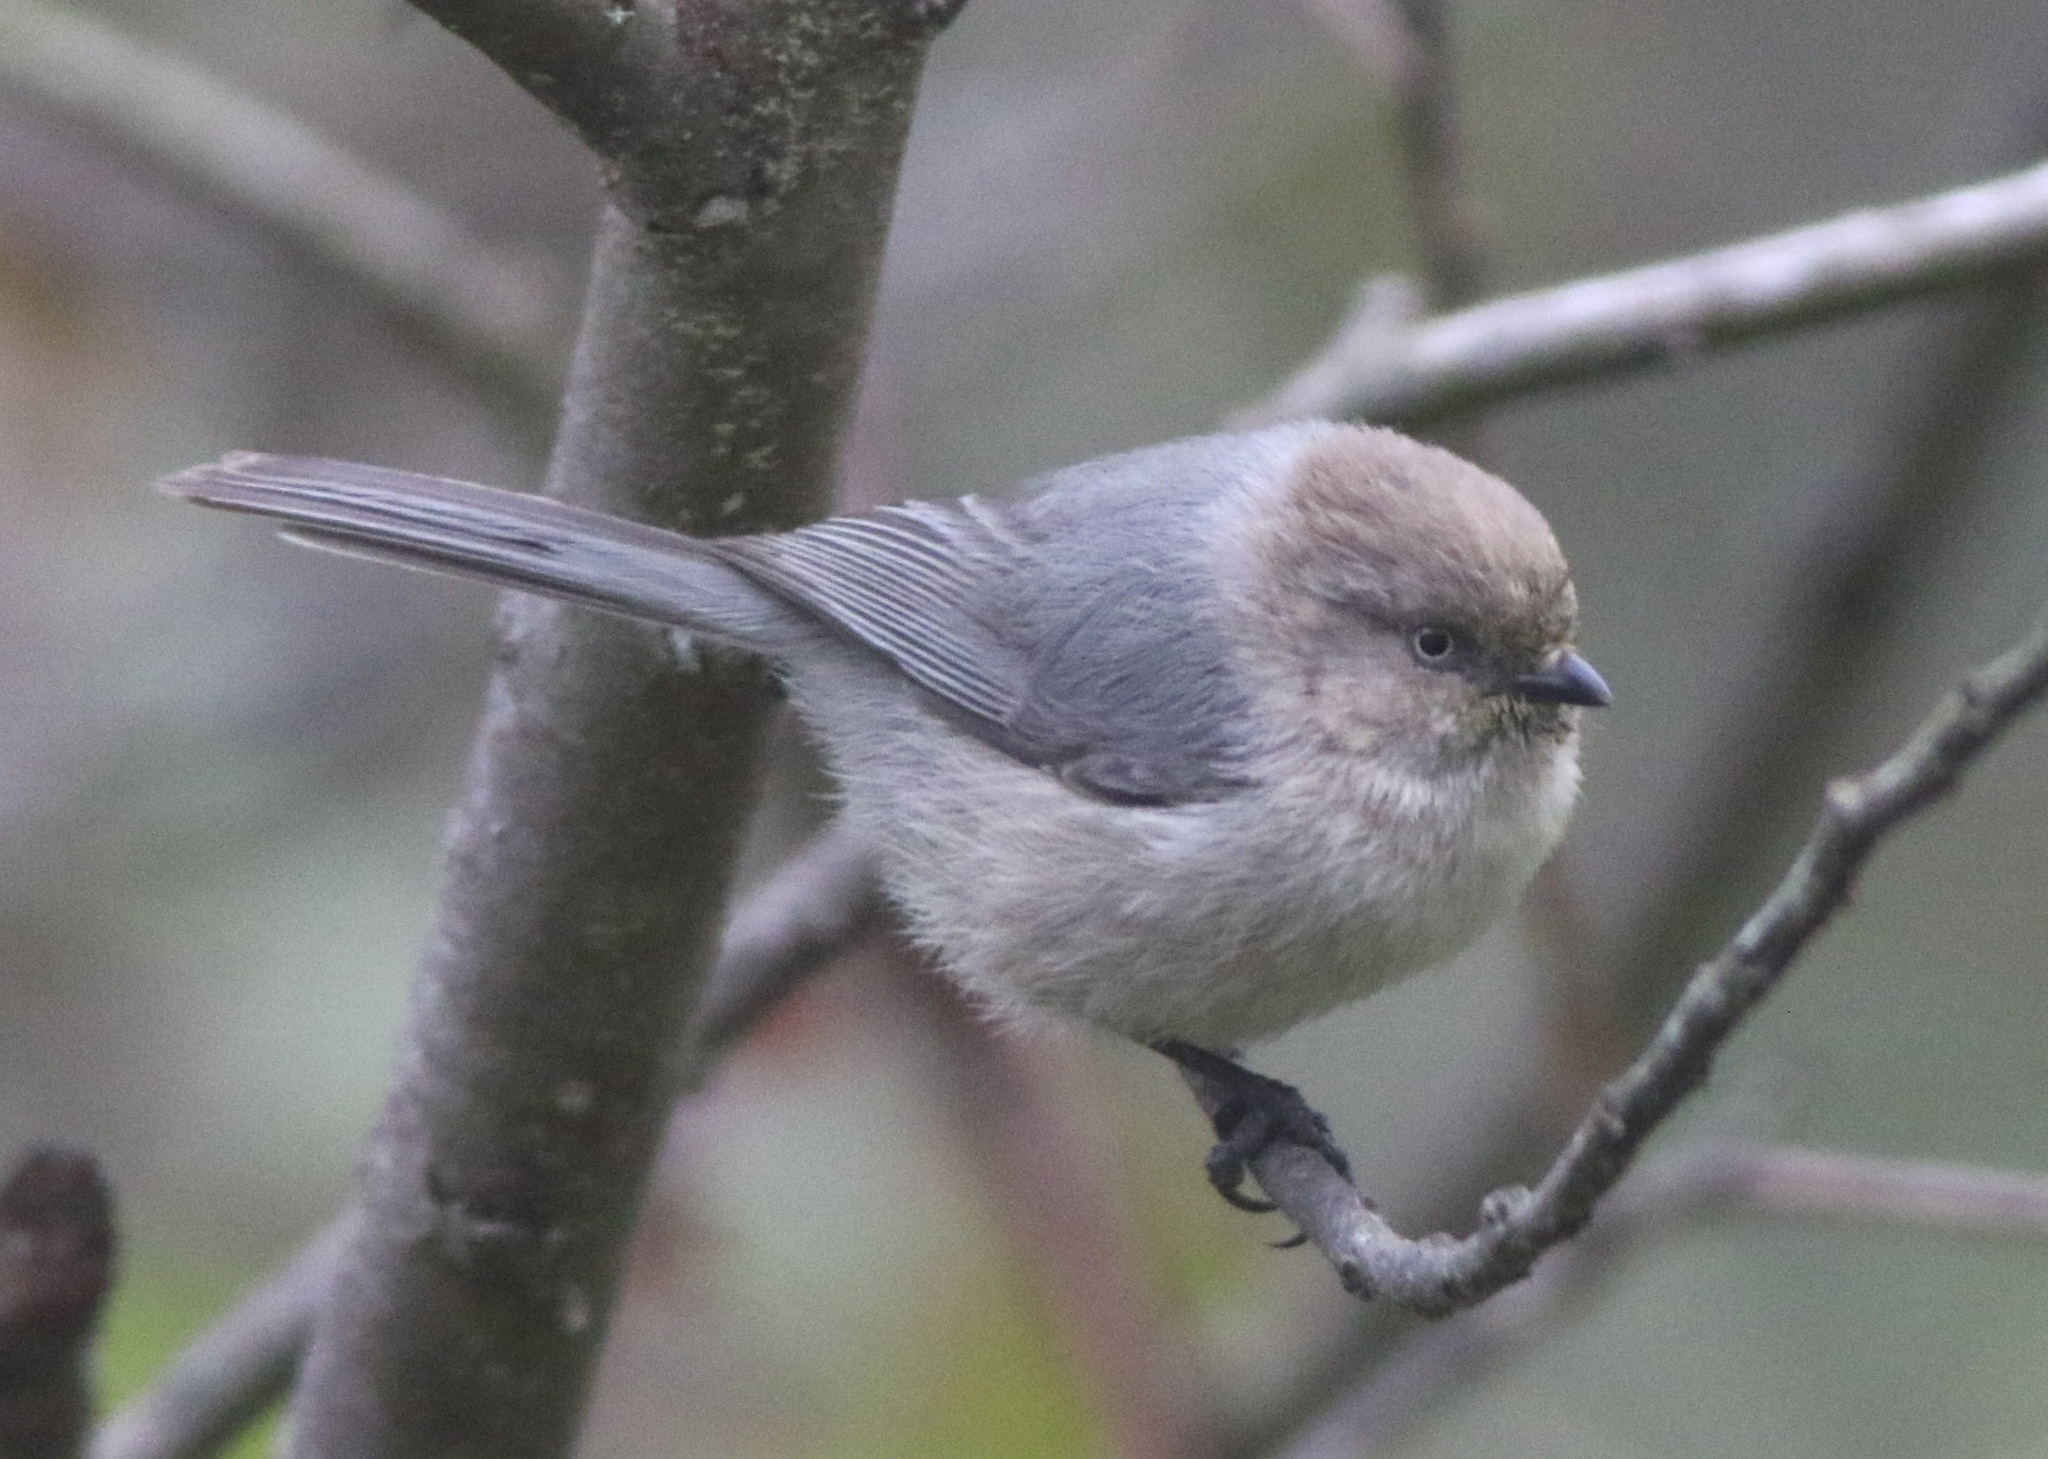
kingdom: Animalia
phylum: Chordata
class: Aves
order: Passeriformes
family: Aegithalidae
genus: Psaltriparus
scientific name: Psaltriparus minimus
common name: American bushtit
